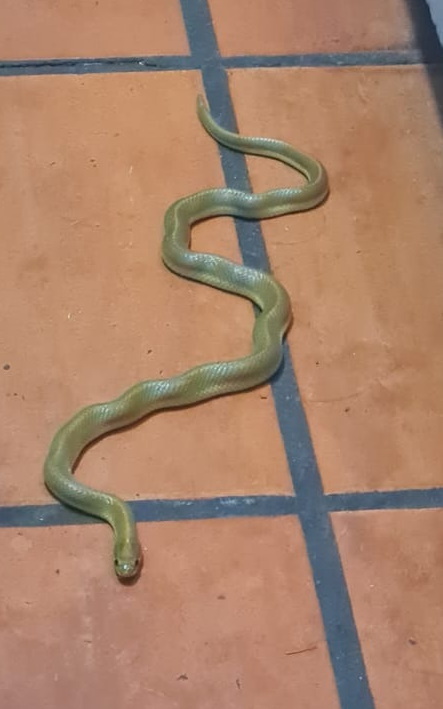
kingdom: Animalia
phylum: Chordata
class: Squamata
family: Lamprophiidae
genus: Lamprophis
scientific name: Lamprophis aurora
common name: Aurora house snake
